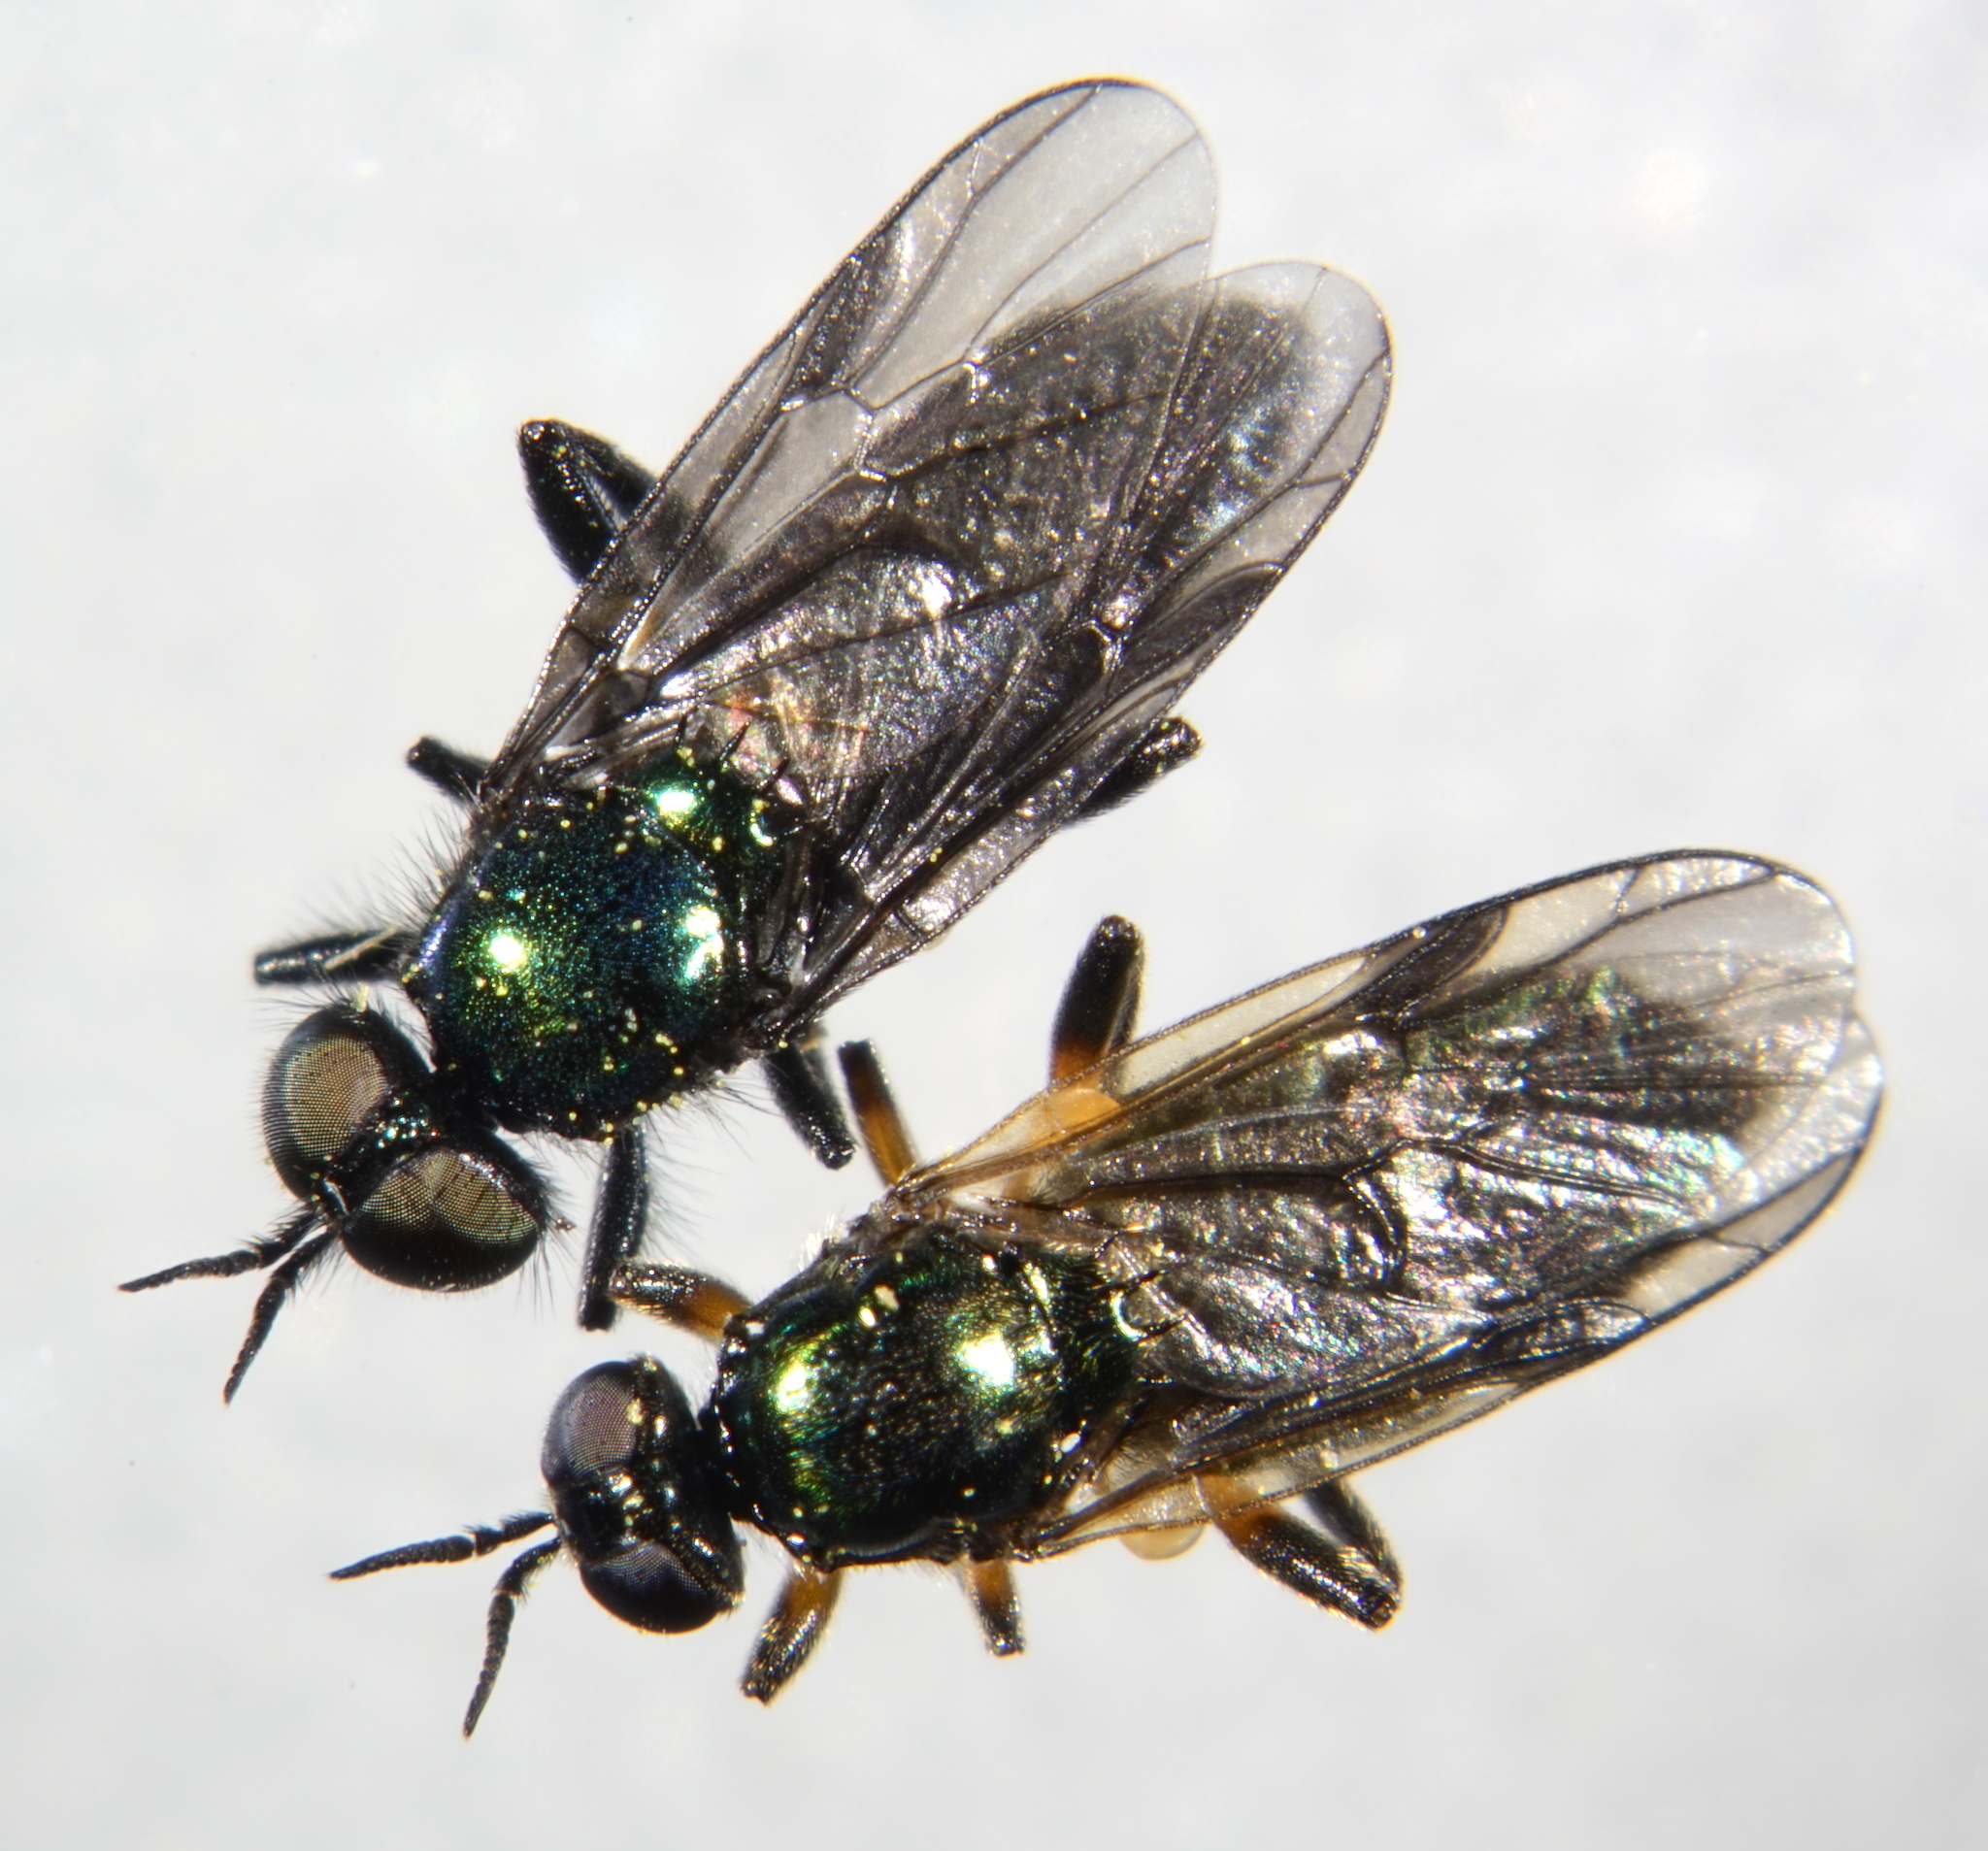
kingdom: Animalia
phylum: Arthropoda
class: Insecta
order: Diptera
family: Stratiomyidae
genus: Actina
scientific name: Actina chalybea
